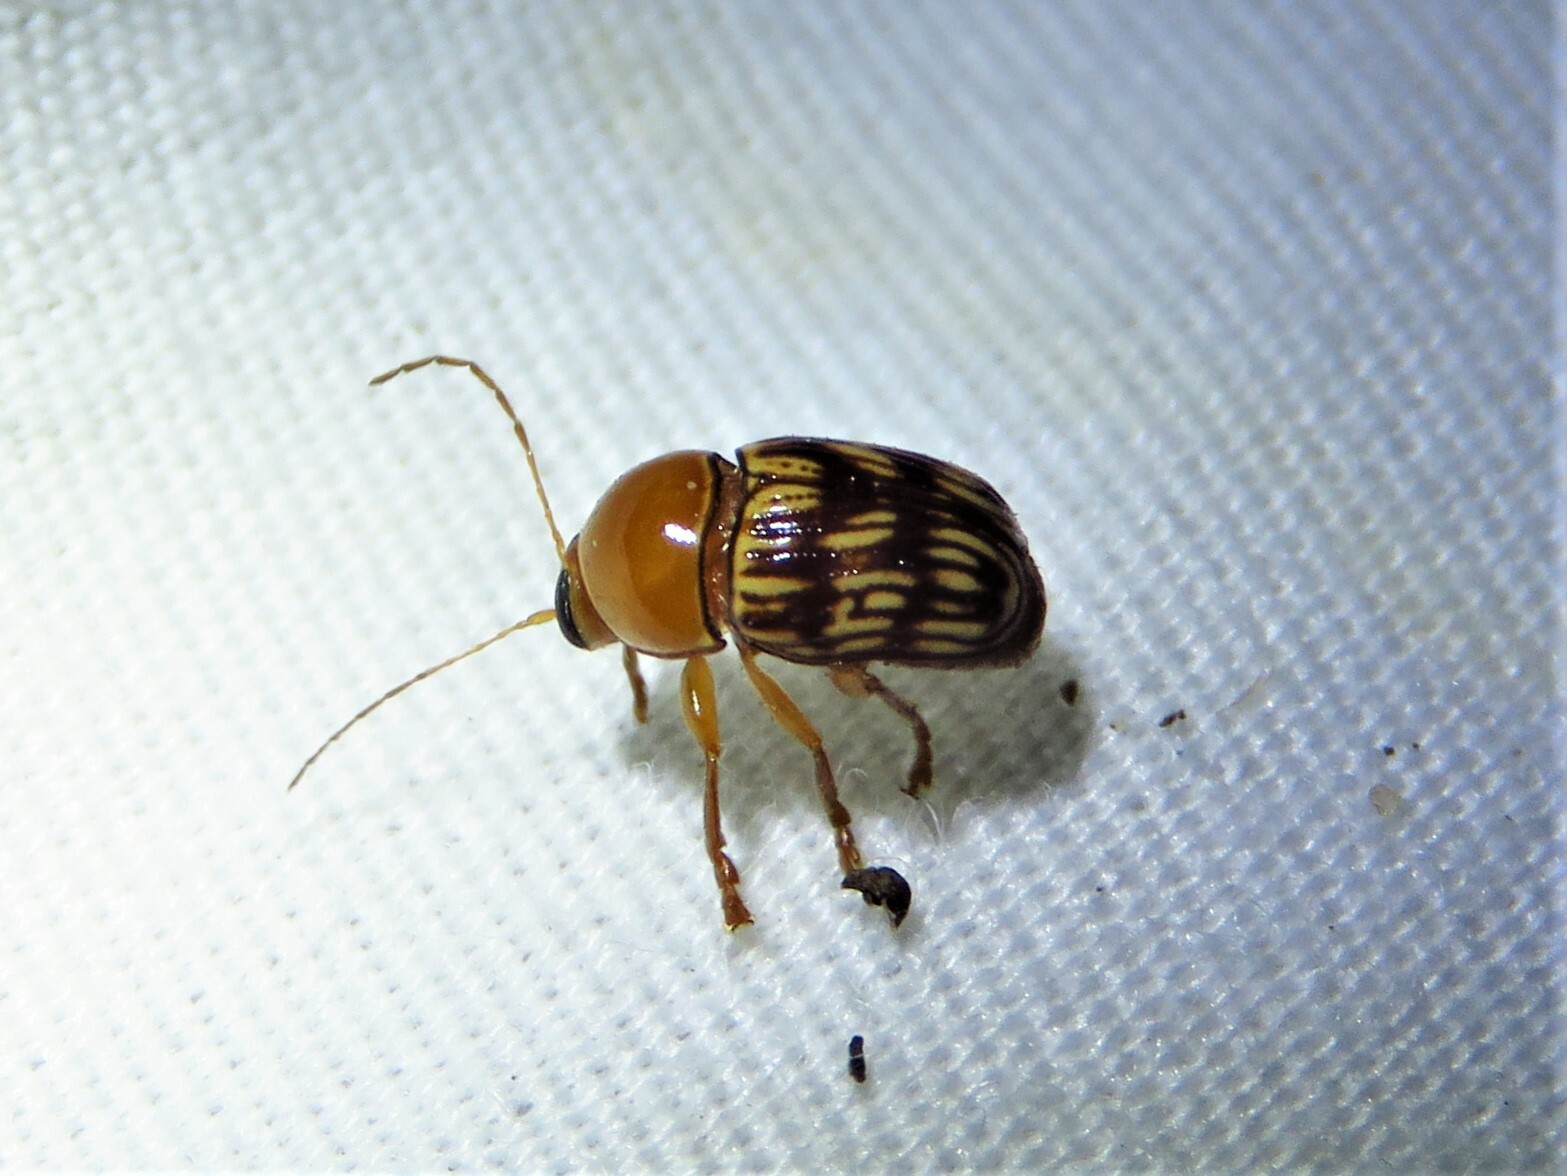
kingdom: Animalia
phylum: Arthropoda
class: Insecta
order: Coleoptera
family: Chrysomelidae
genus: Cryptocephalus
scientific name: Cryptocephalus fulguratus
